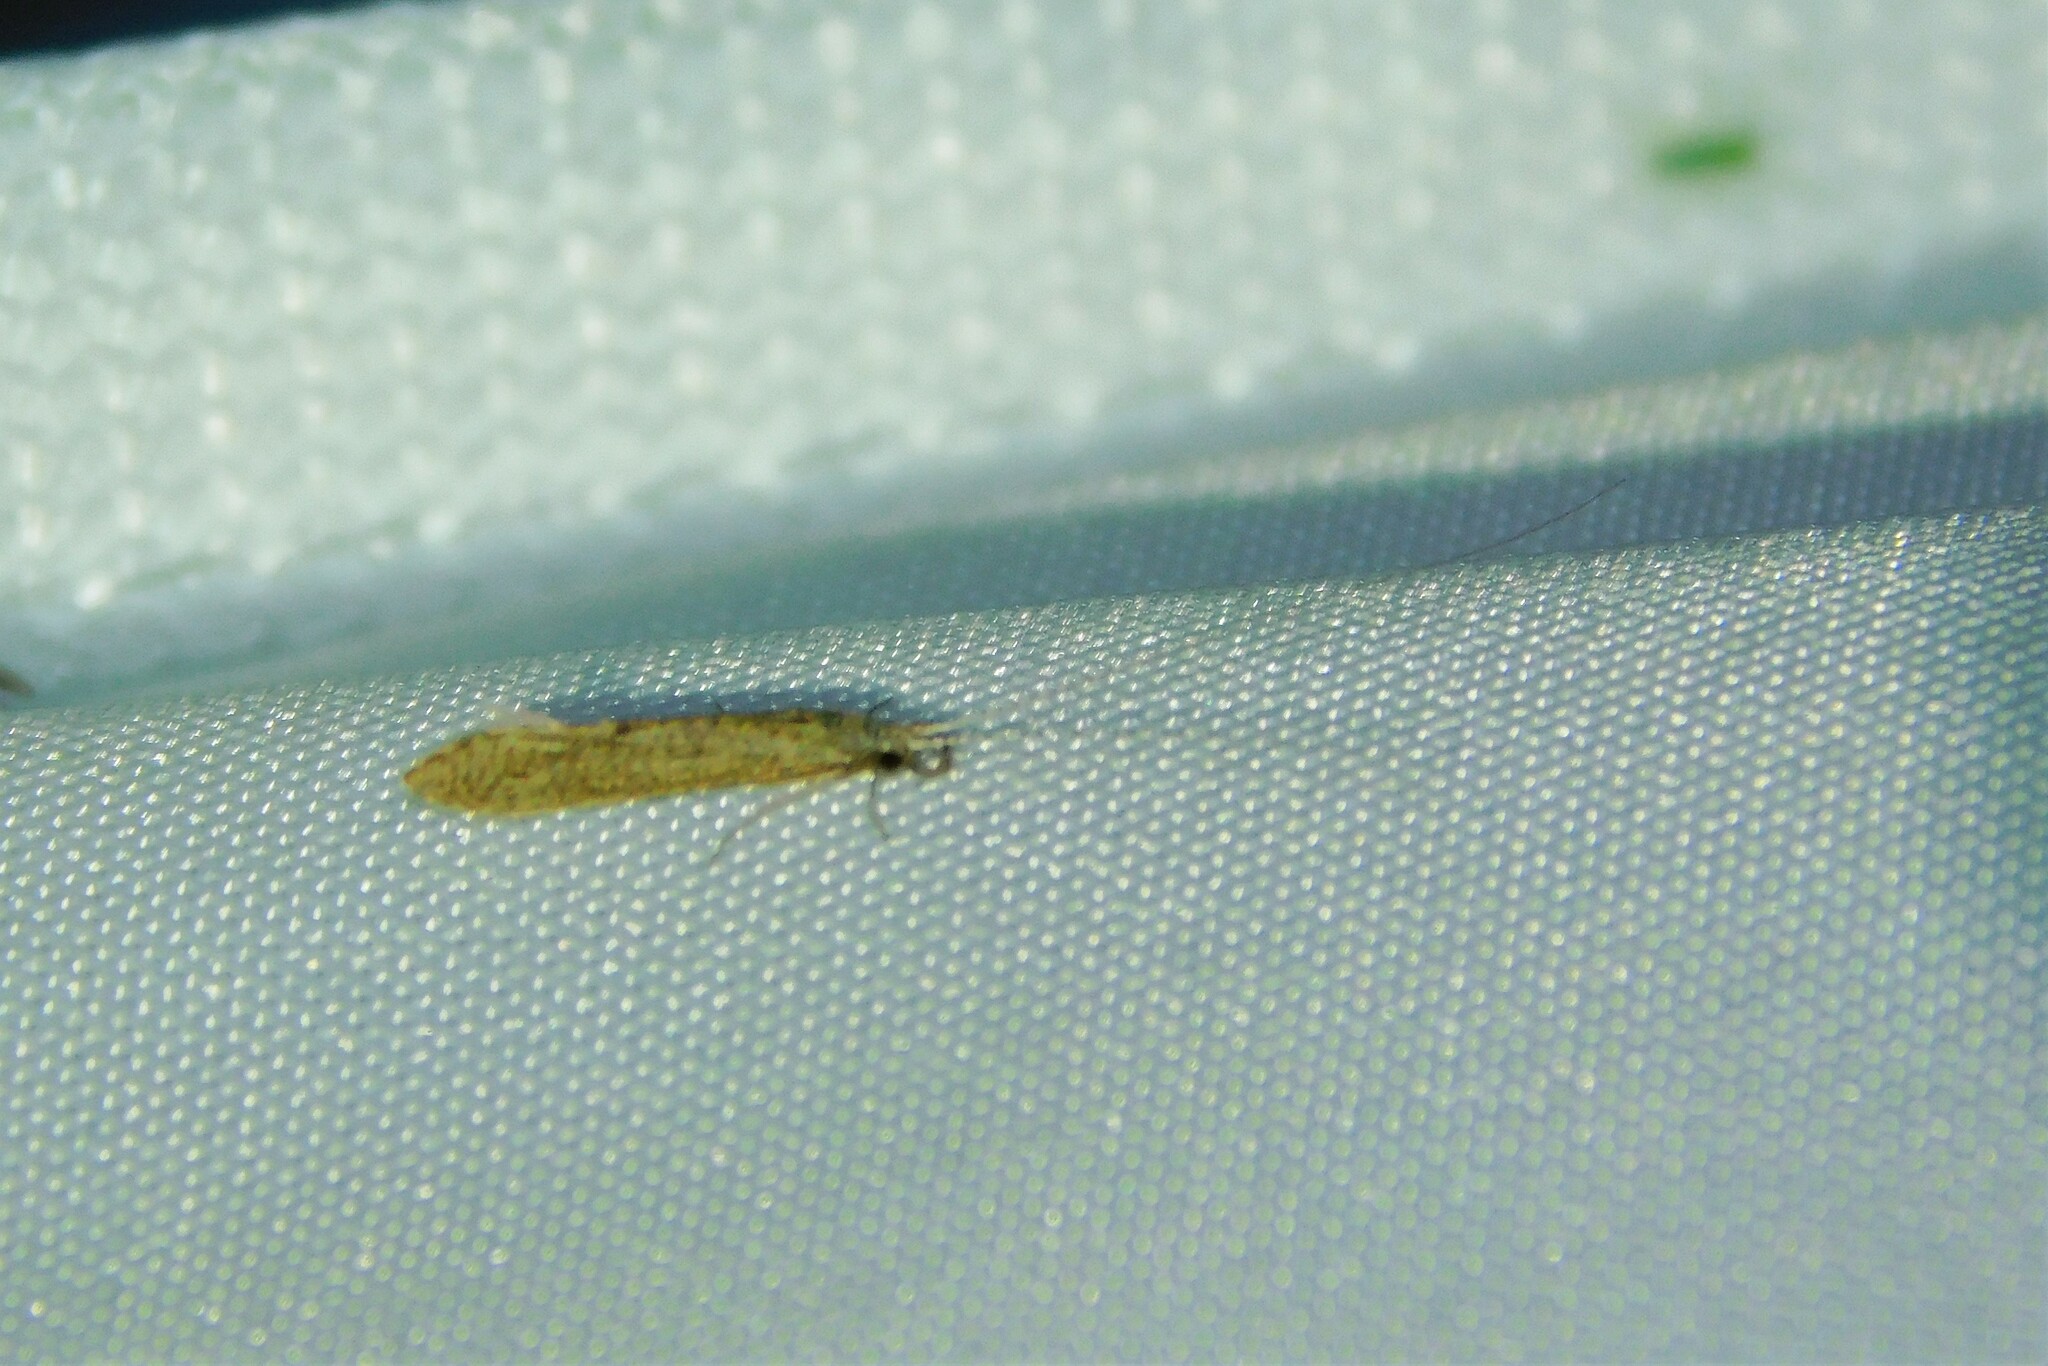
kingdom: Animalia
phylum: Arthropoda
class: Insecta
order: Trichoptera
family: Leptoceridae
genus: Leptocerus
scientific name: Leptocerus tineiformis
